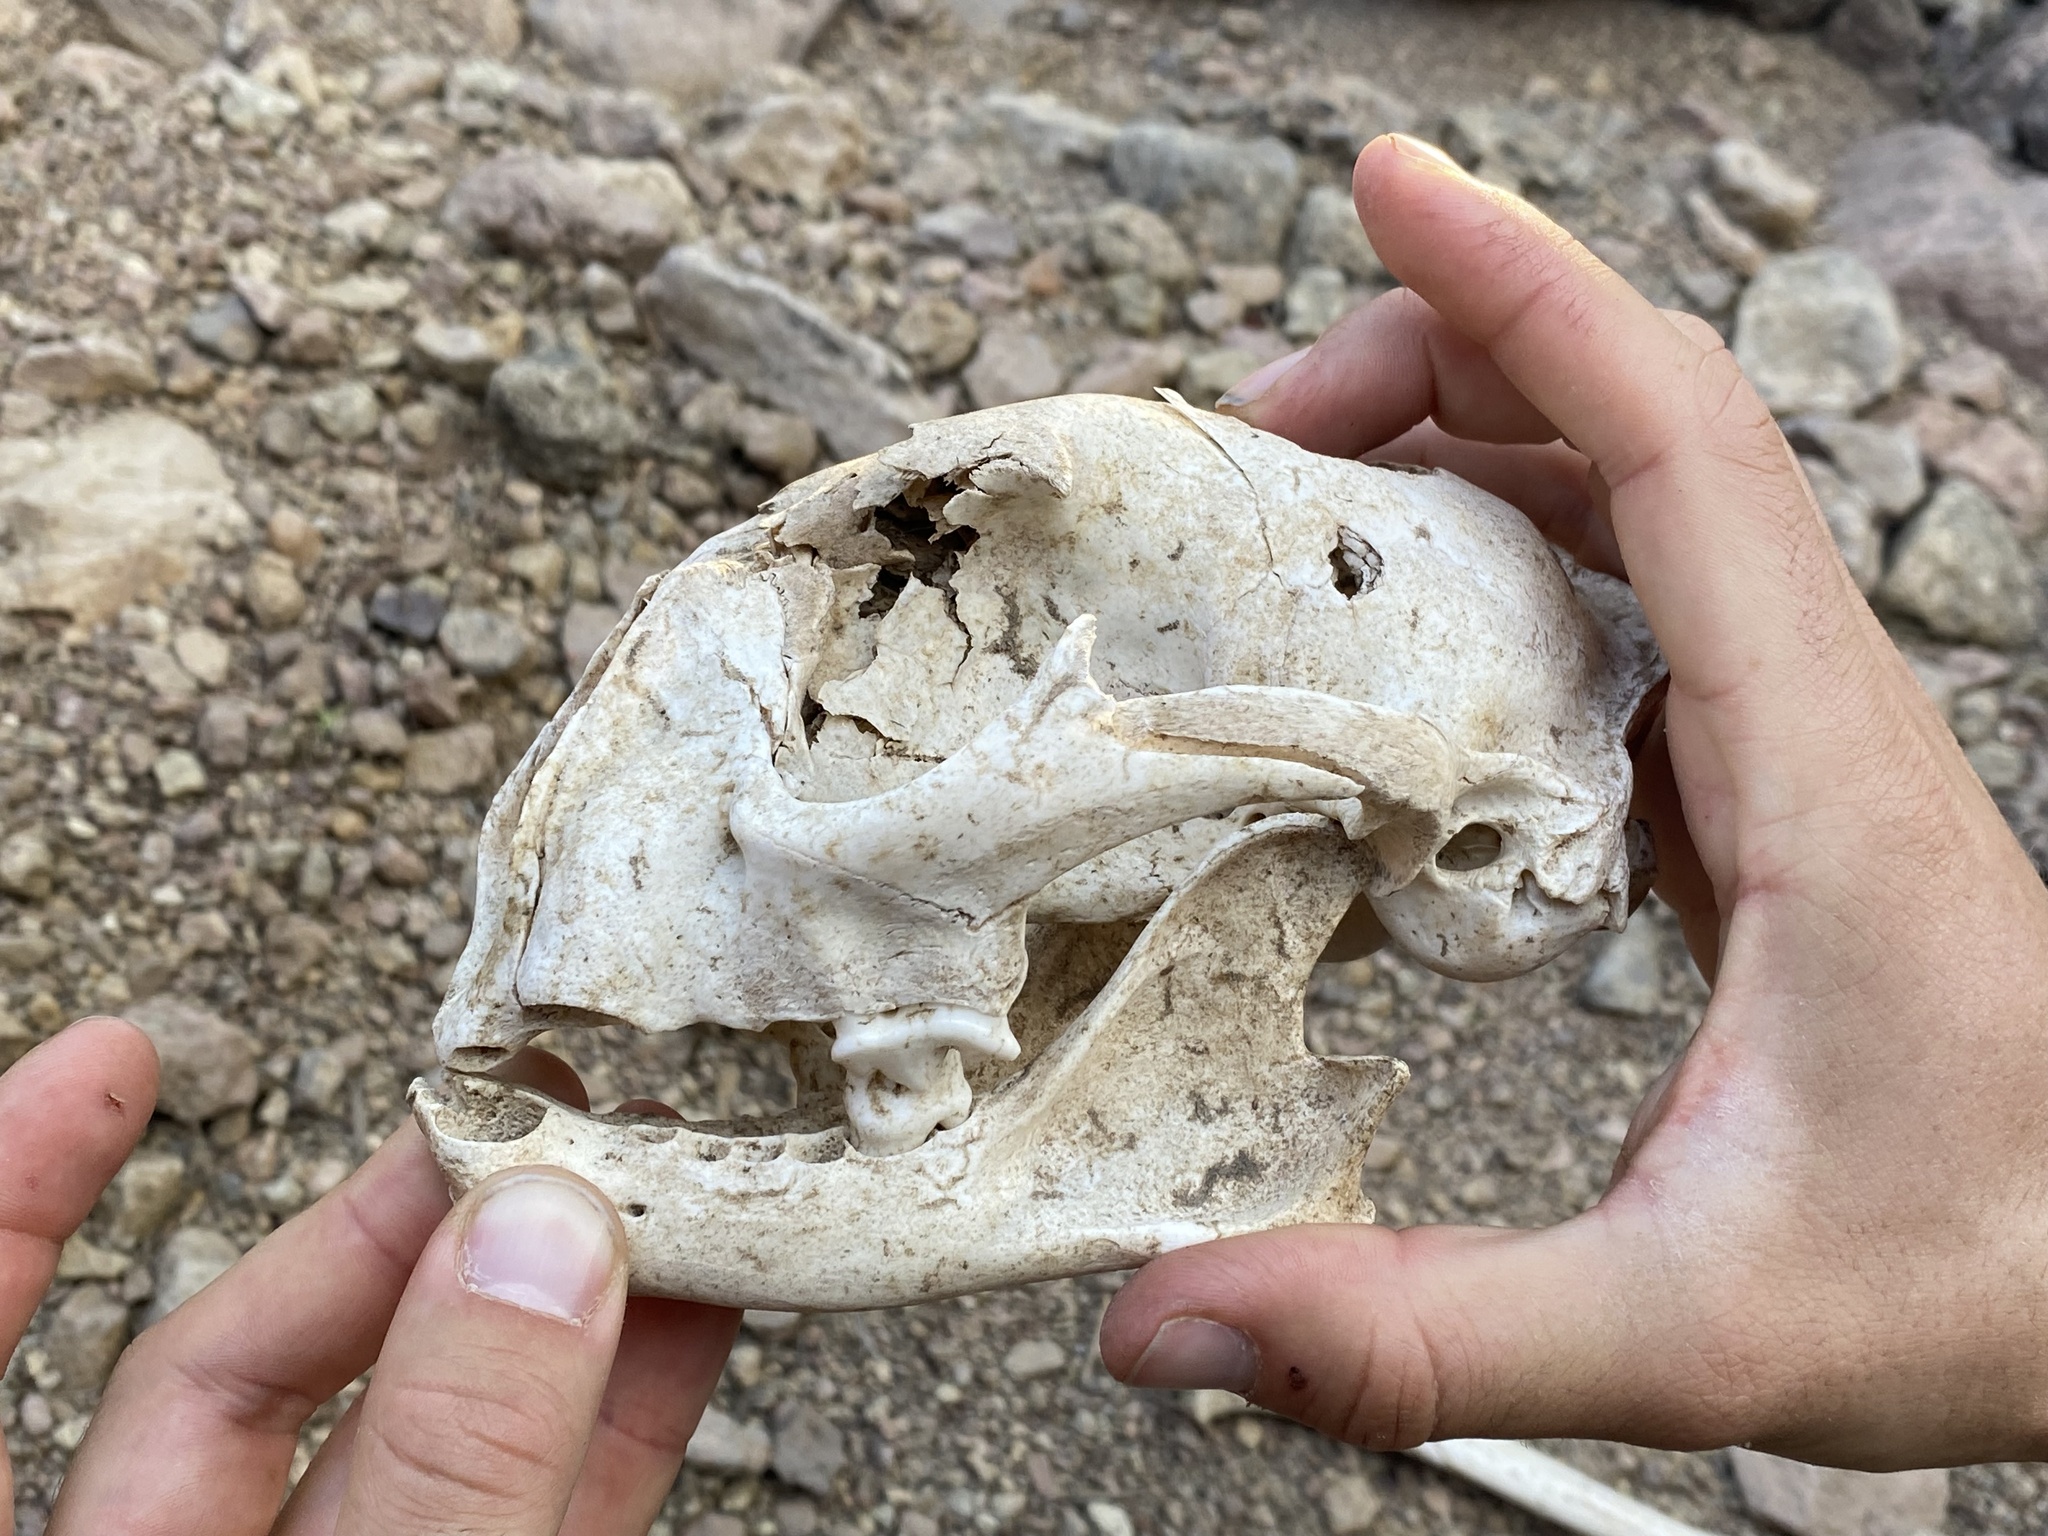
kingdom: Animalia
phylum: Chordata
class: Mammalia
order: Carnivora
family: Felidae
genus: Puma
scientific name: Puma concolor
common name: Puma
